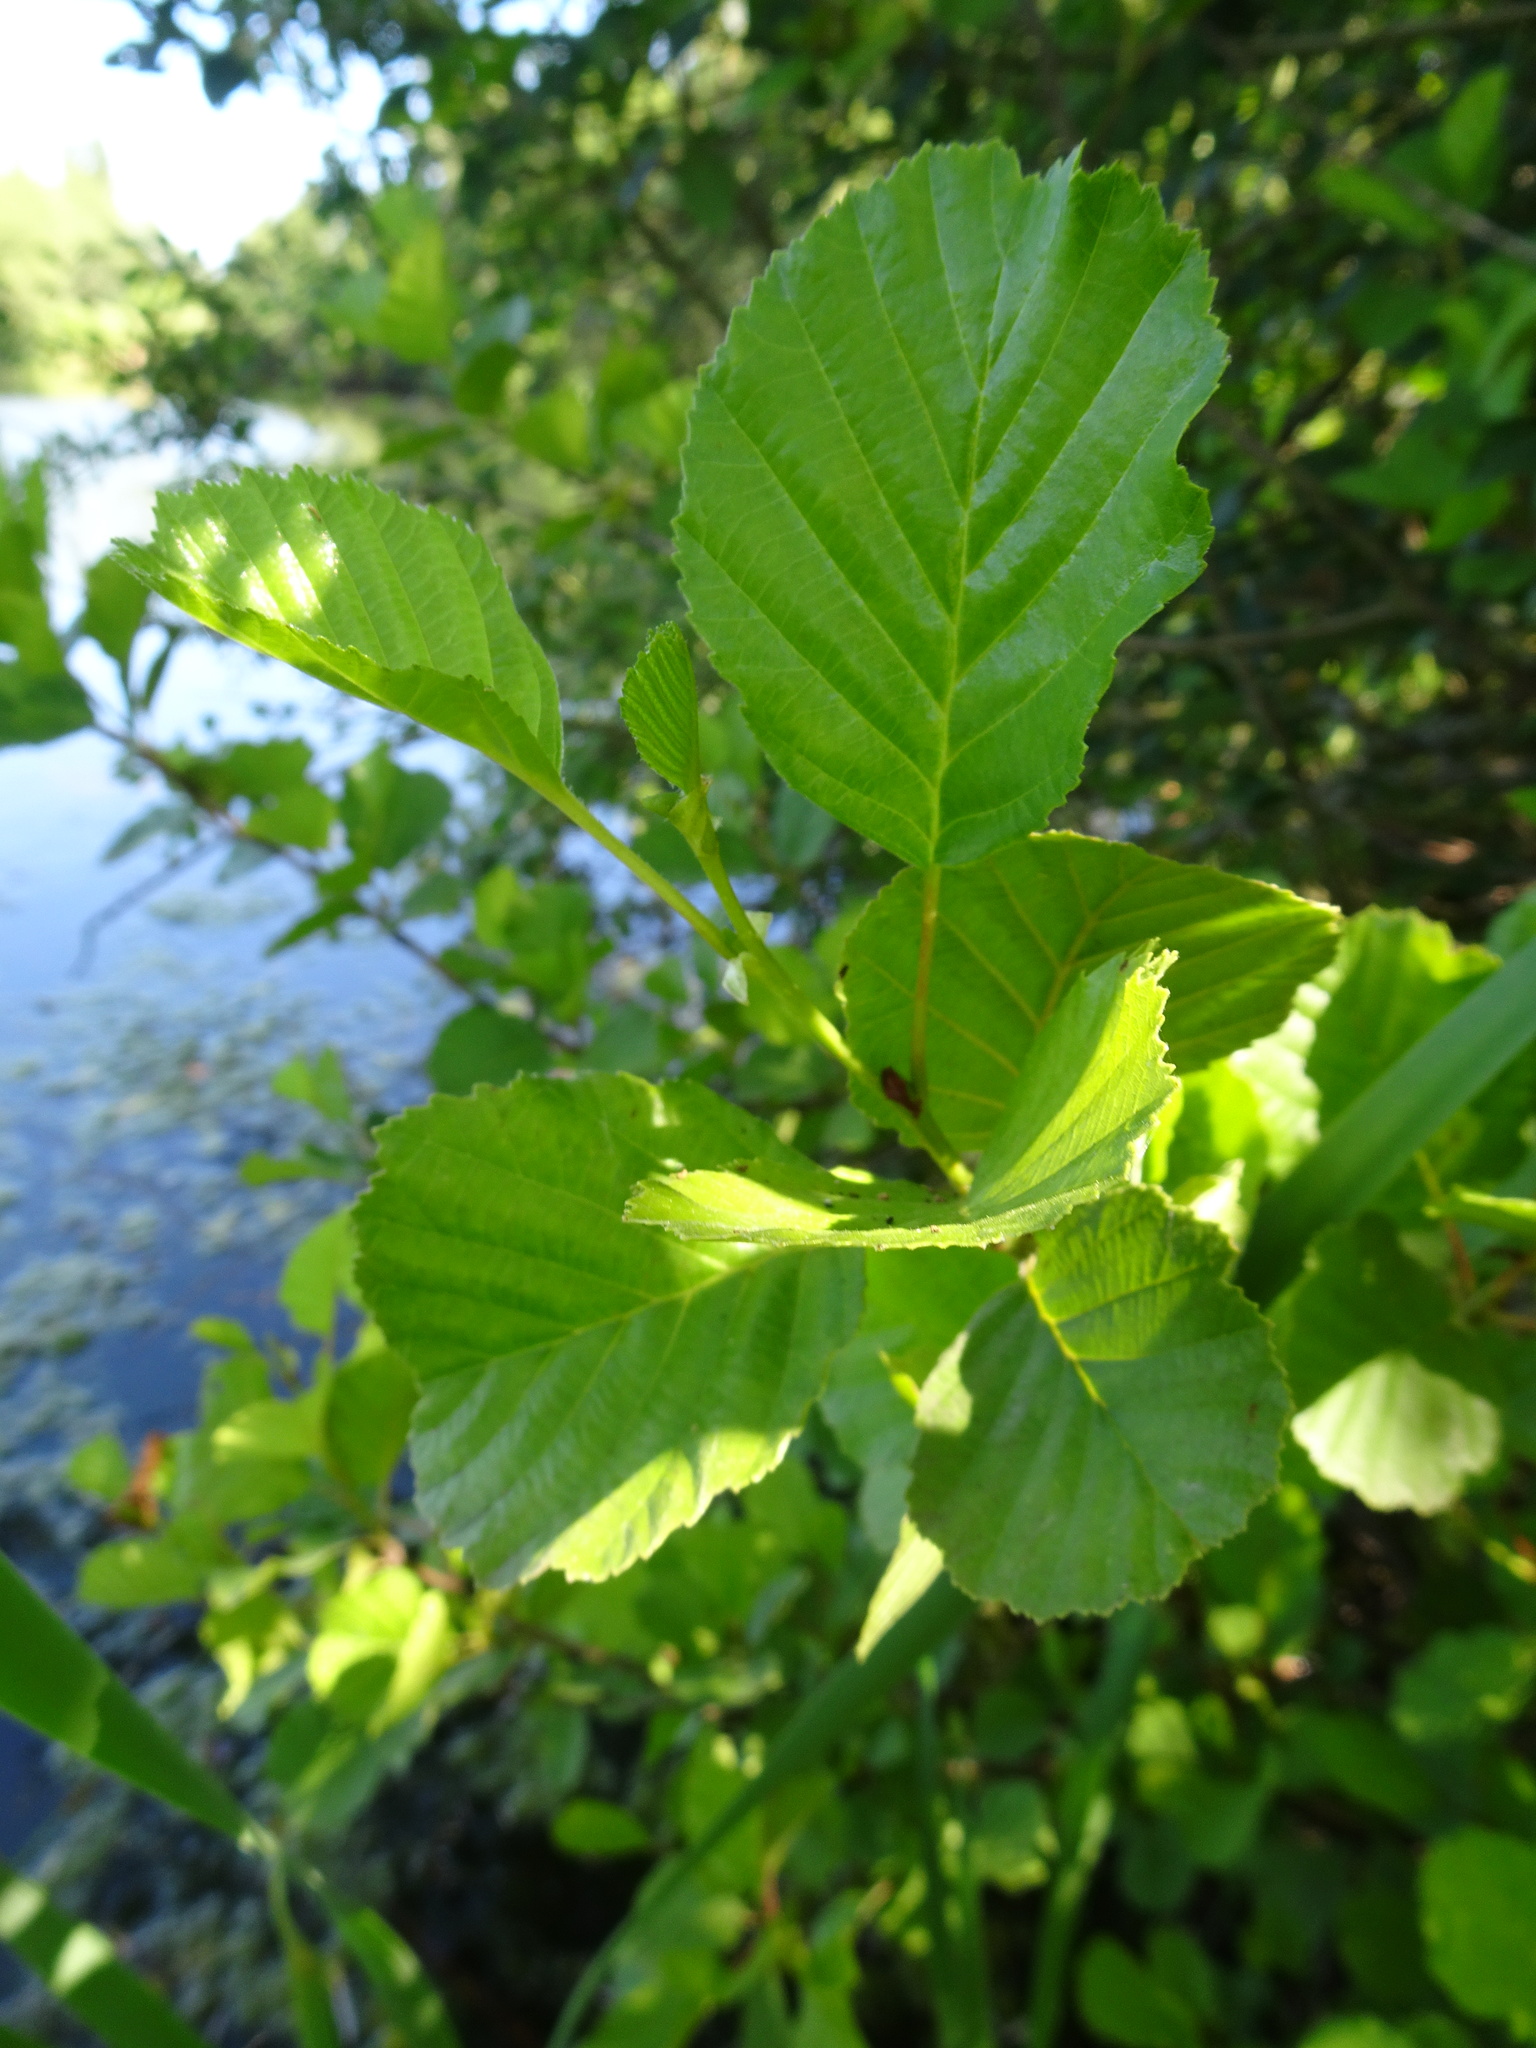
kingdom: Plantae
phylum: Tracheophyta
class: Magnoliopsida
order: Fagales
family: Betulaceae
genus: Alnus
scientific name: Alnus glutinosa
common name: Black alder
